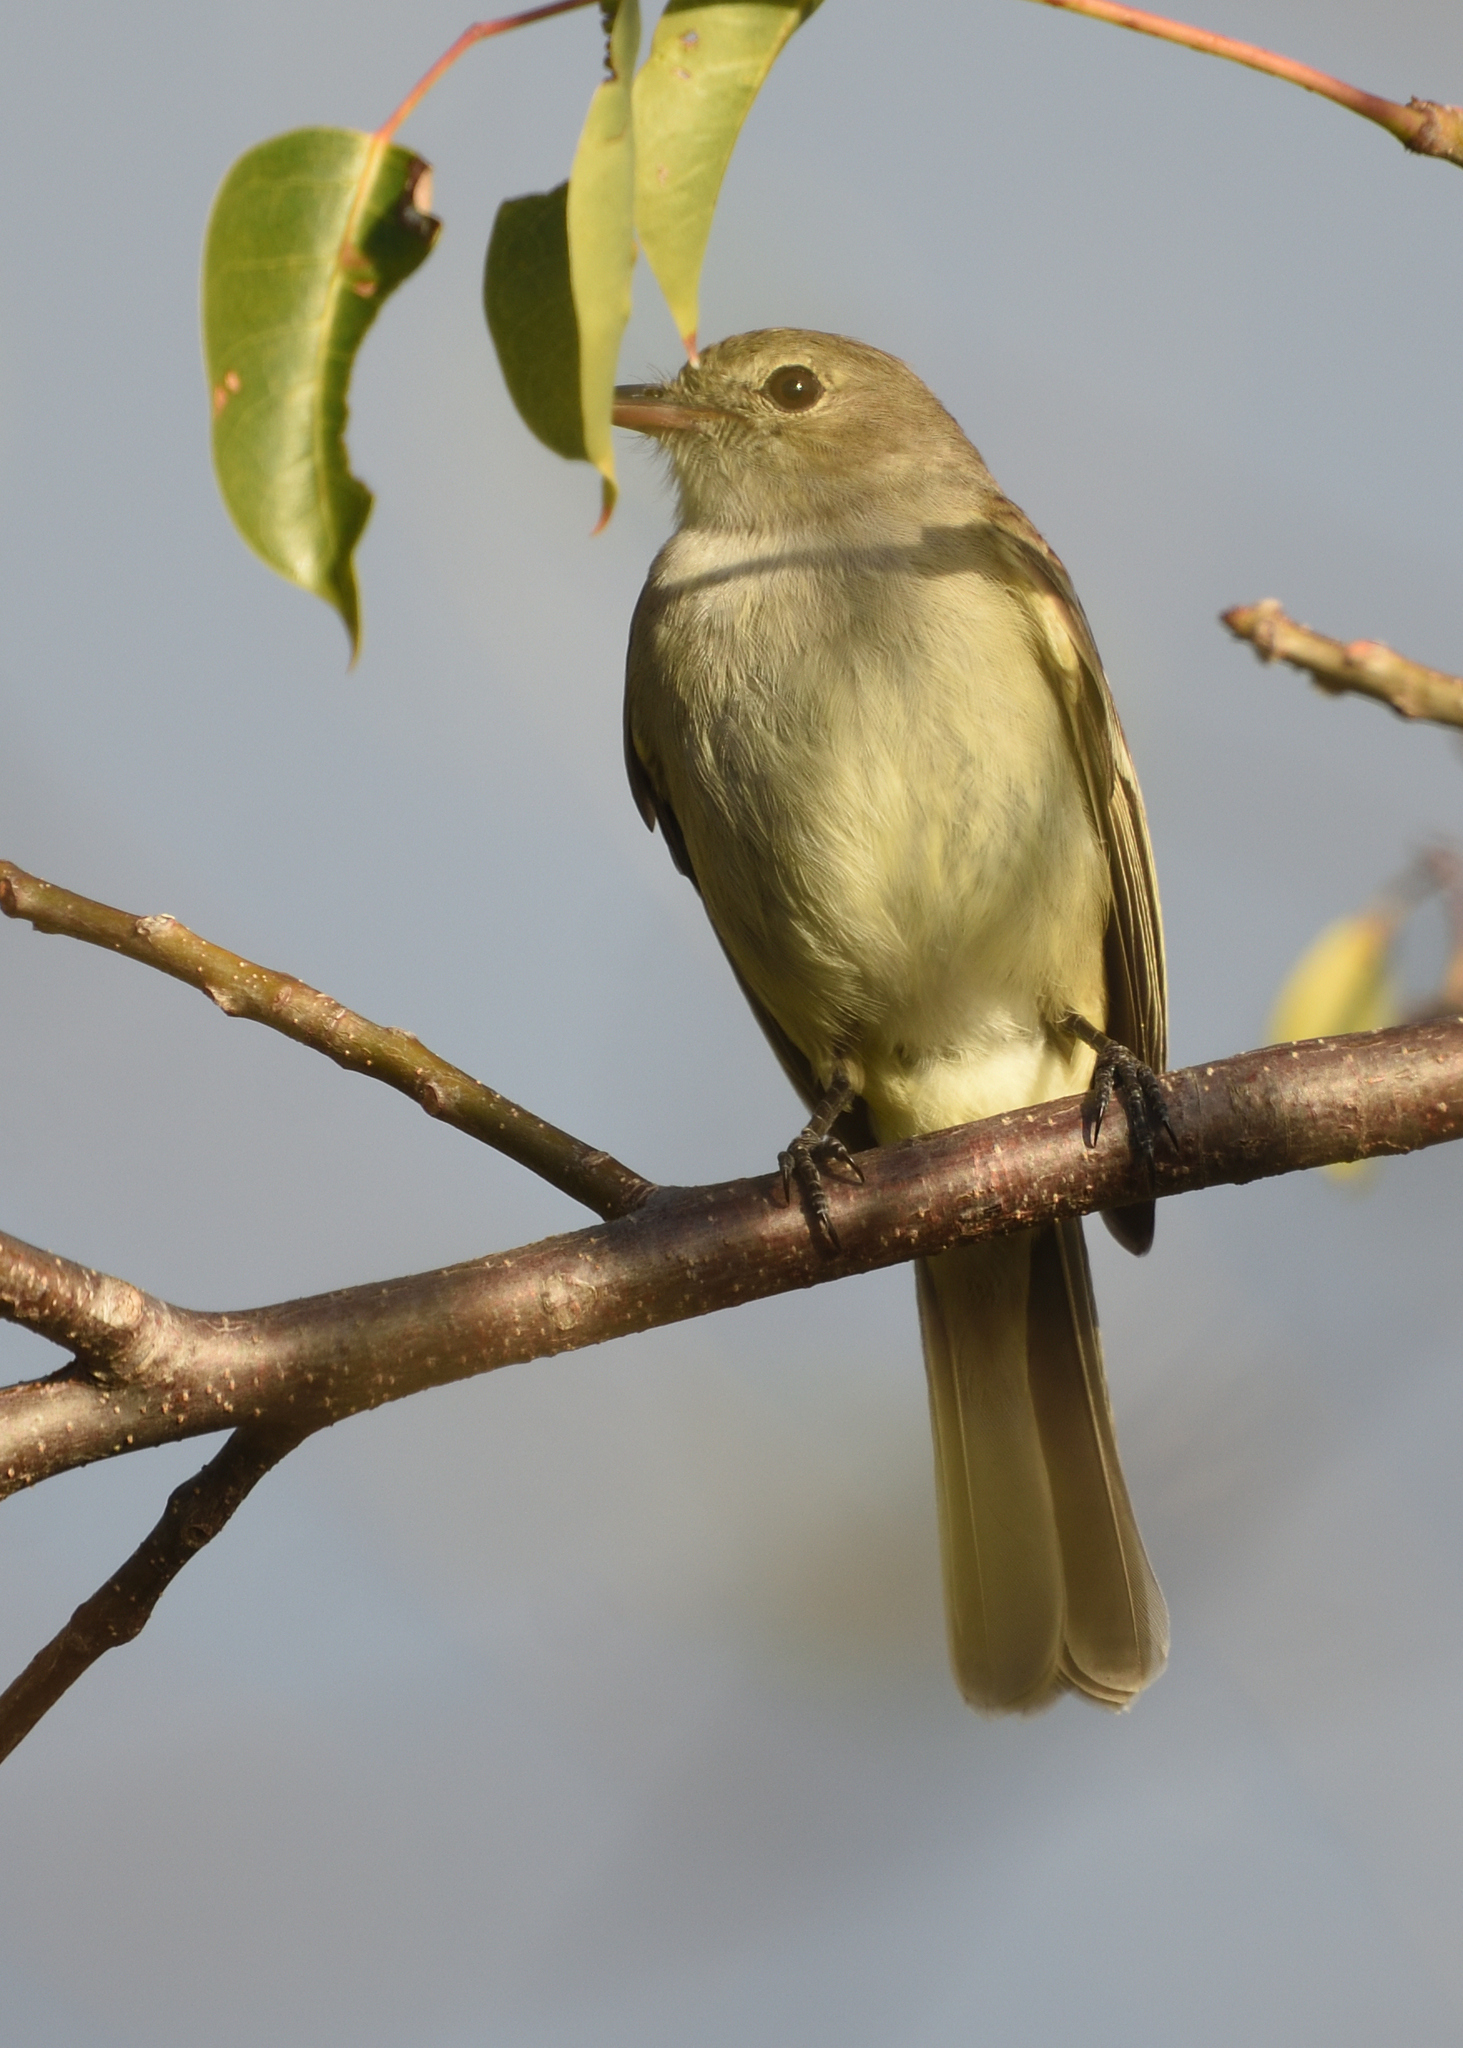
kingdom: Animalia
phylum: Chordata
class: Aves
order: Passeriformes
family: Tyrannidae
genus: Elaenia
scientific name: Elaenia martinica
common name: Caribbean elaenia
